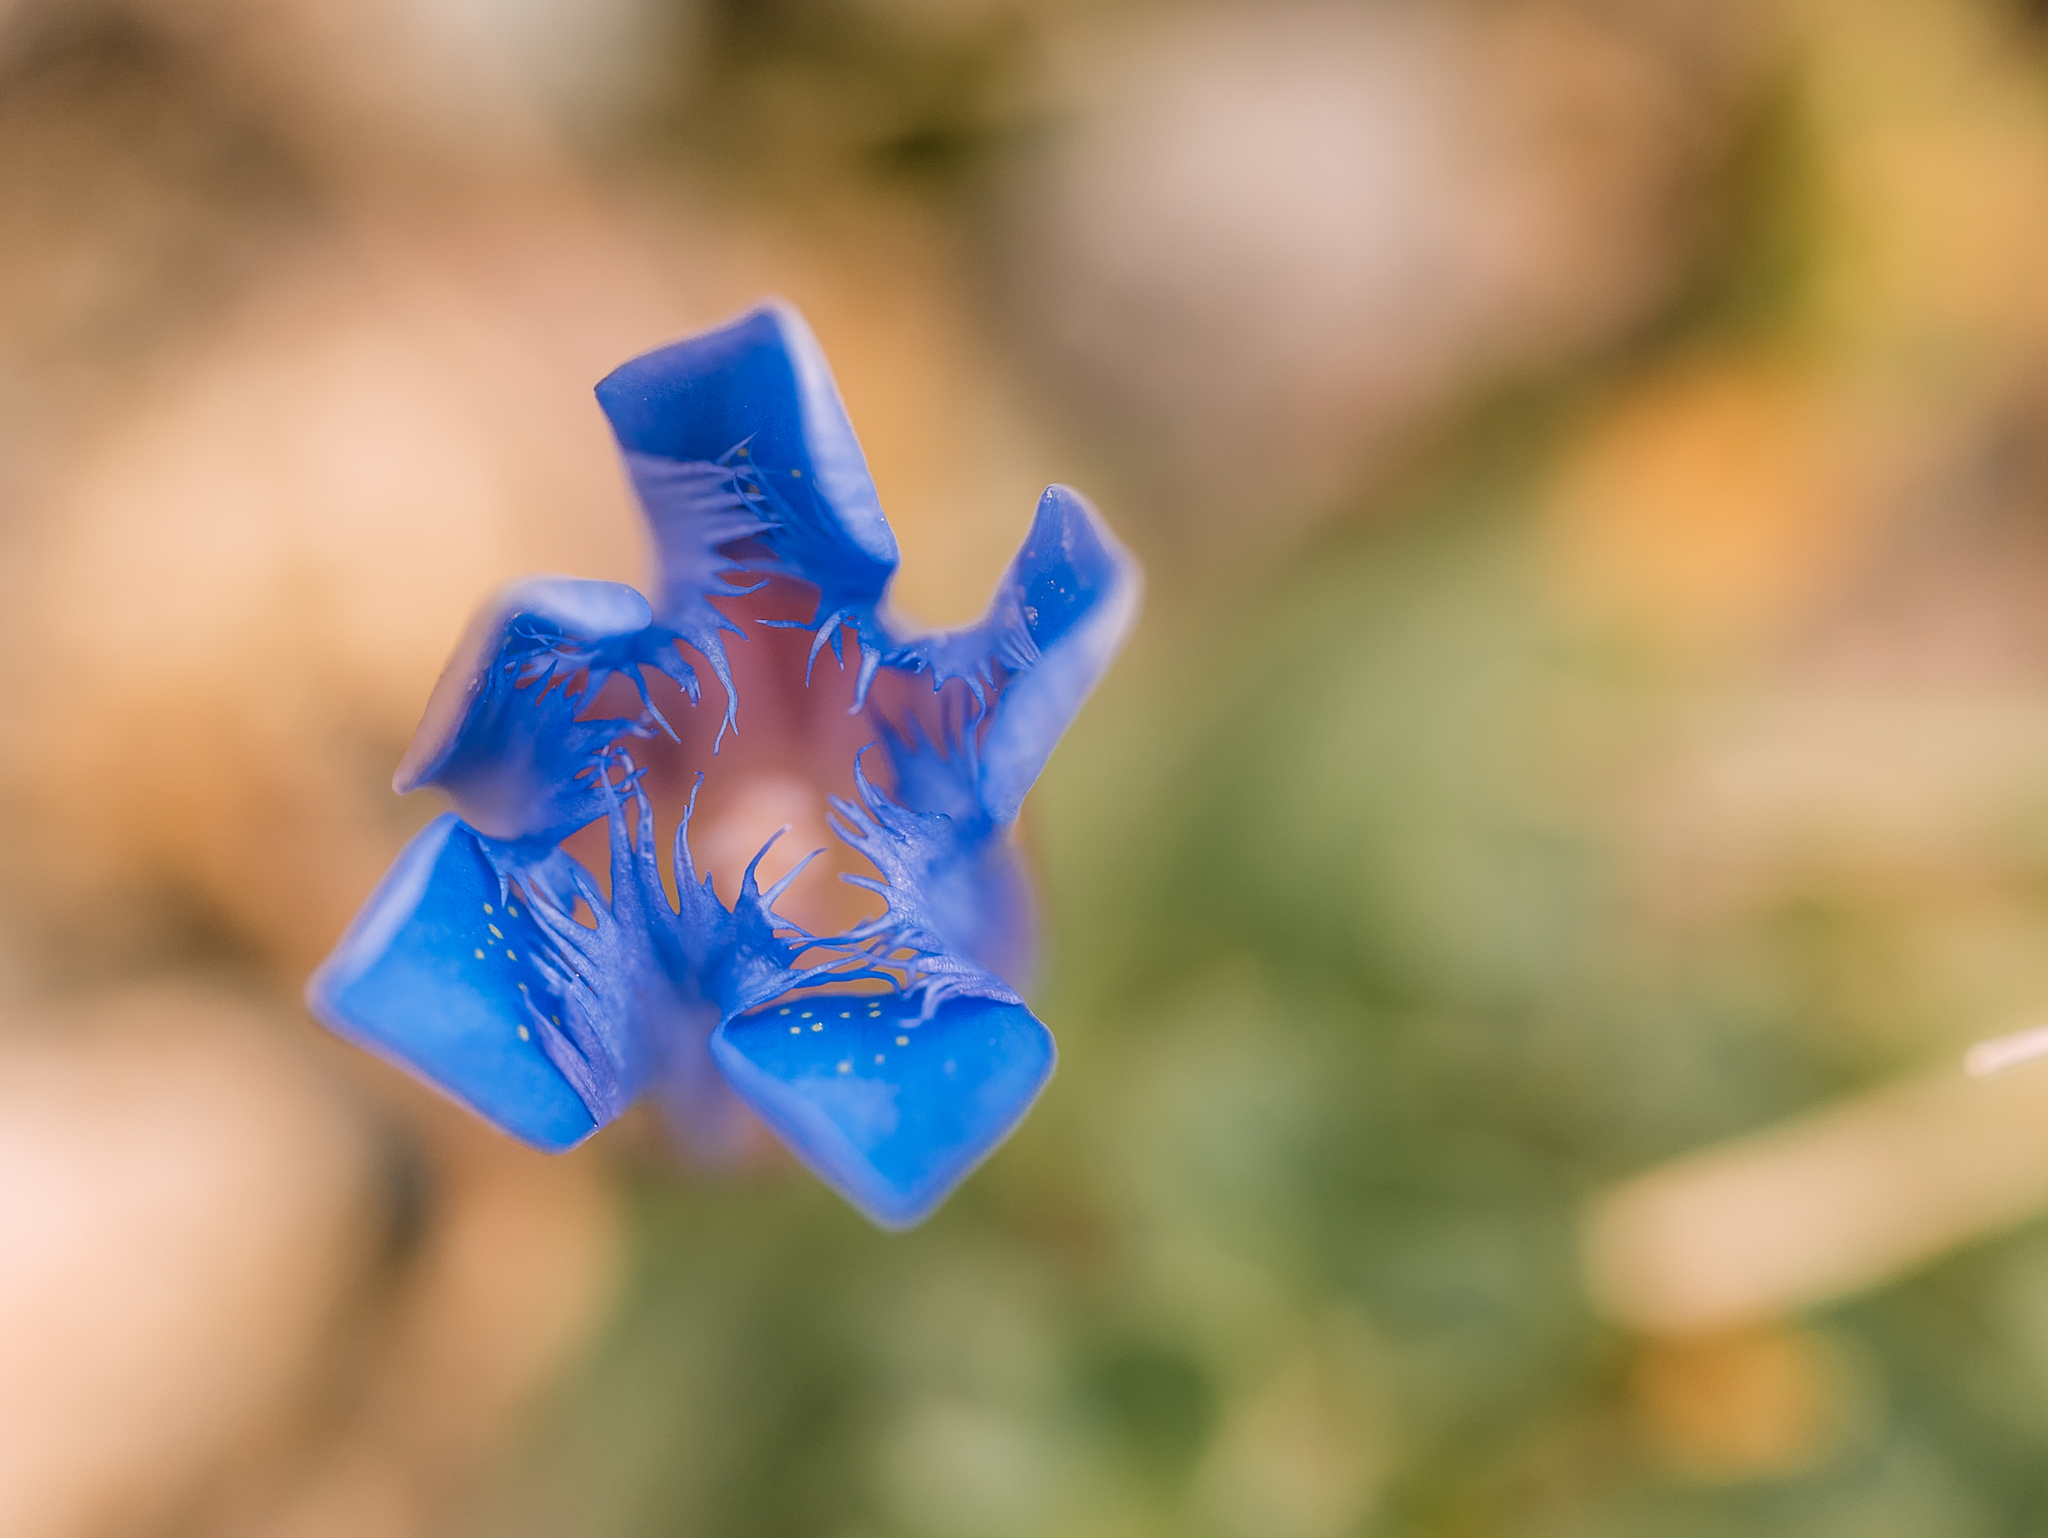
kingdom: Plantae
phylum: Tracheophyta
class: Magnoliopsida
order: Gentianales
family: Gentianaceae
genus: Gentiana
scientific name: Gentiana septemfida
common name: Crested gentian
